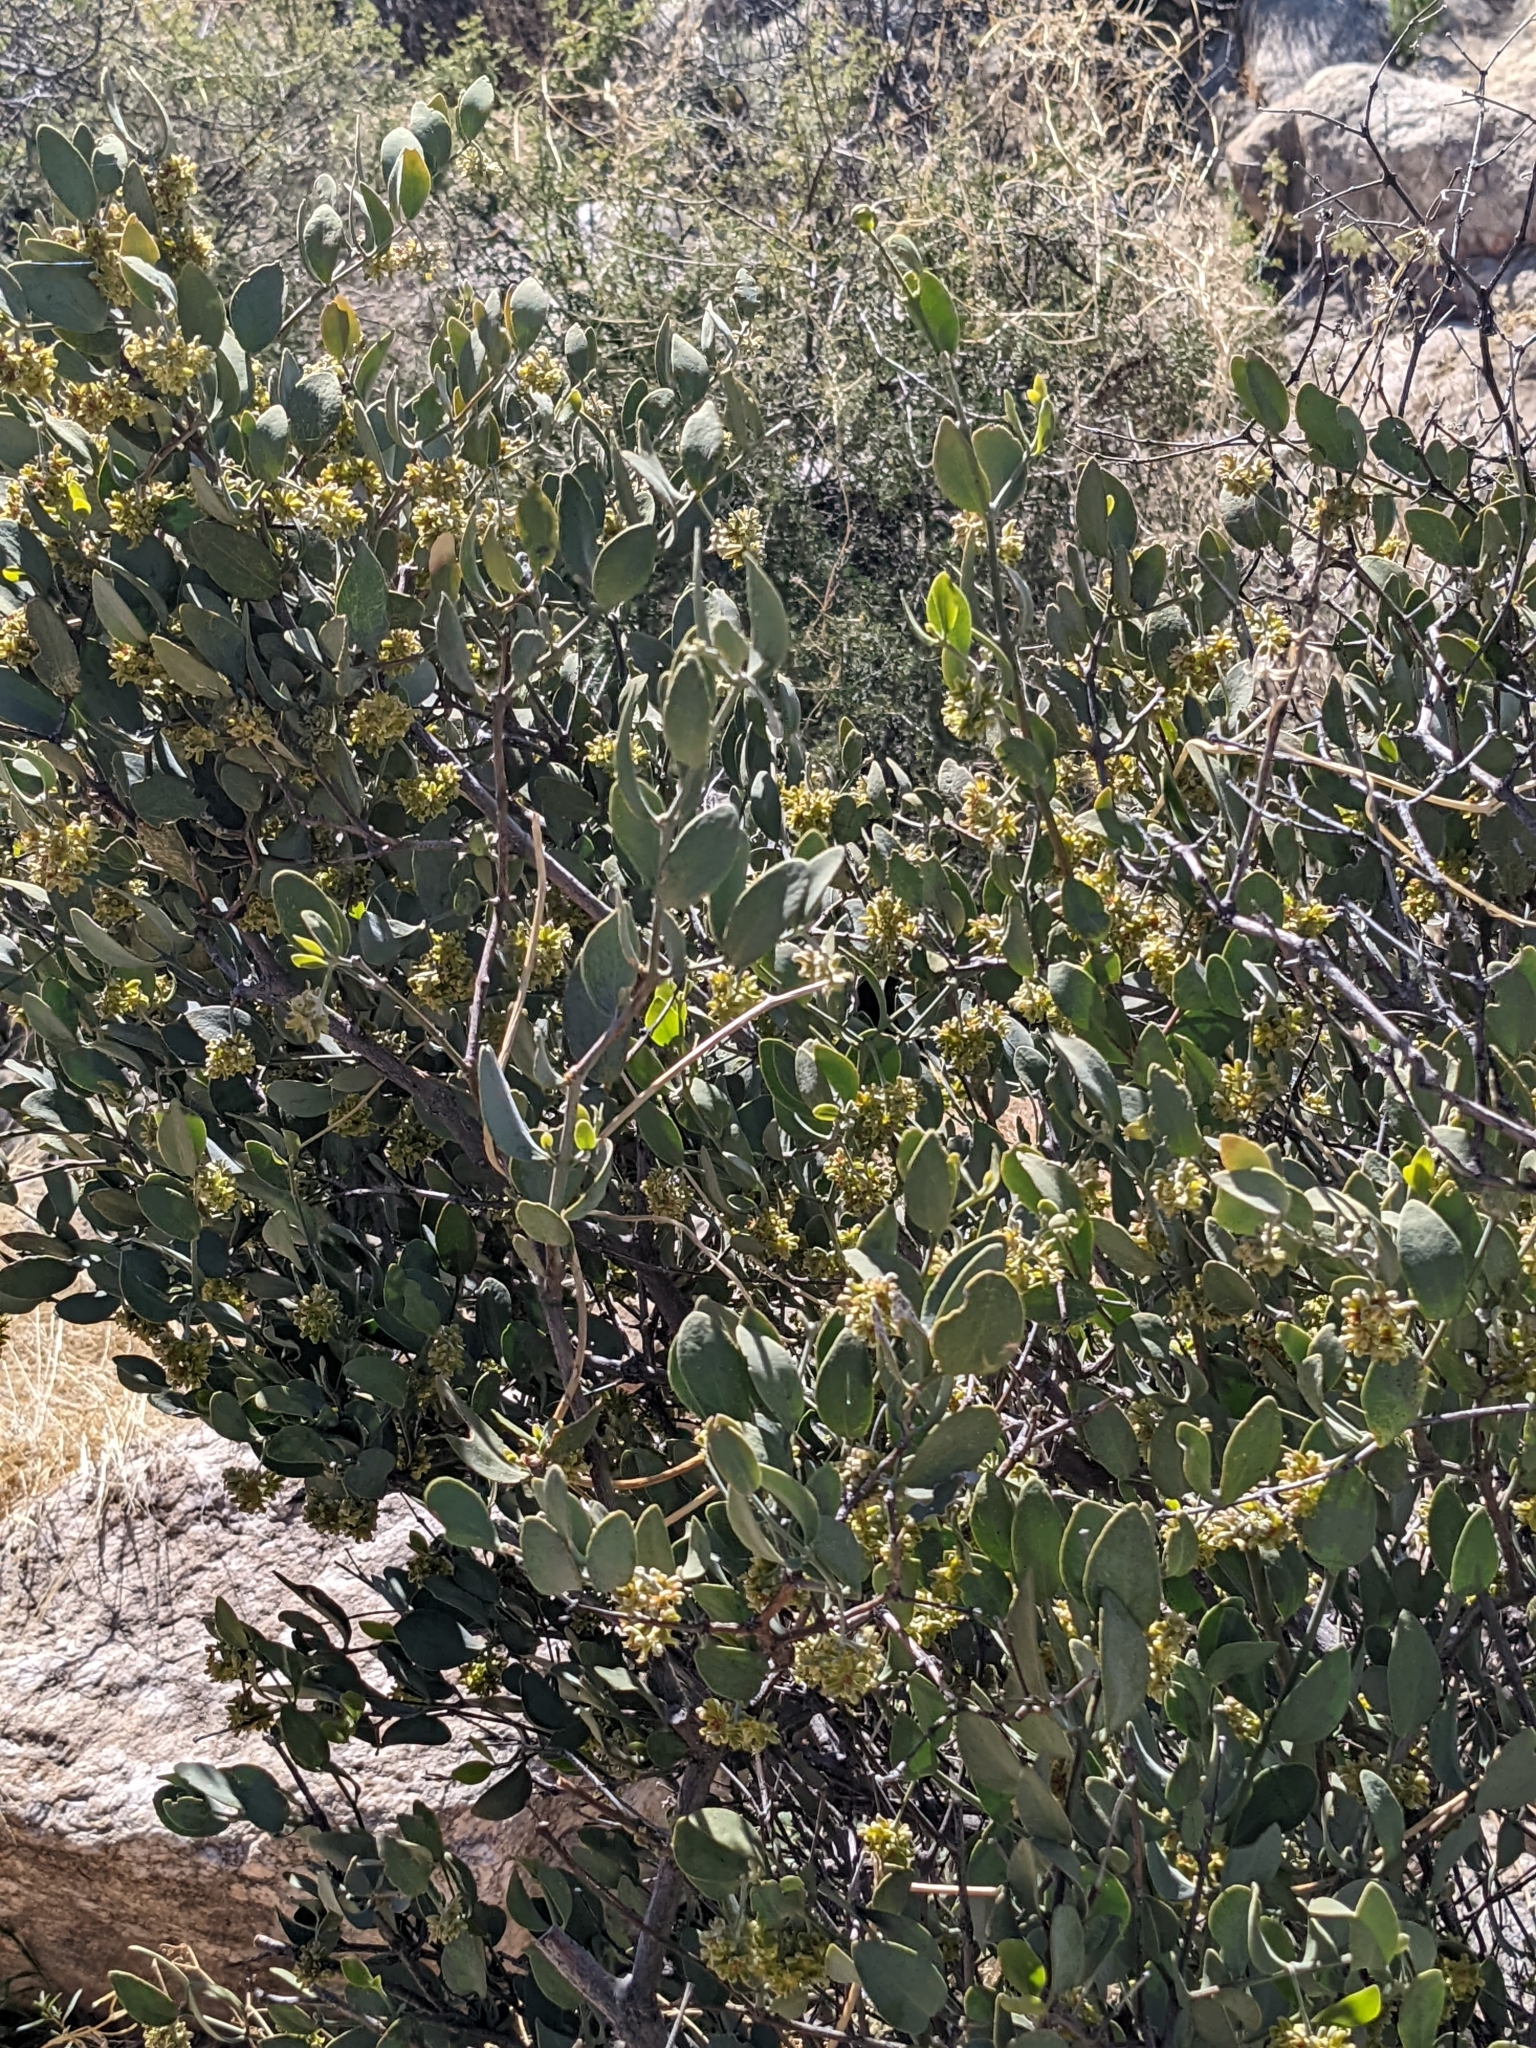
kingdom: Plantae
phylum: Tracheophyta
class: Magnoliopsida
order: Caryophyllales
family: Simmondsiaceae
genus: Simmondsia
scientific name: Simmondsia chinensis
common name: Jojoba
